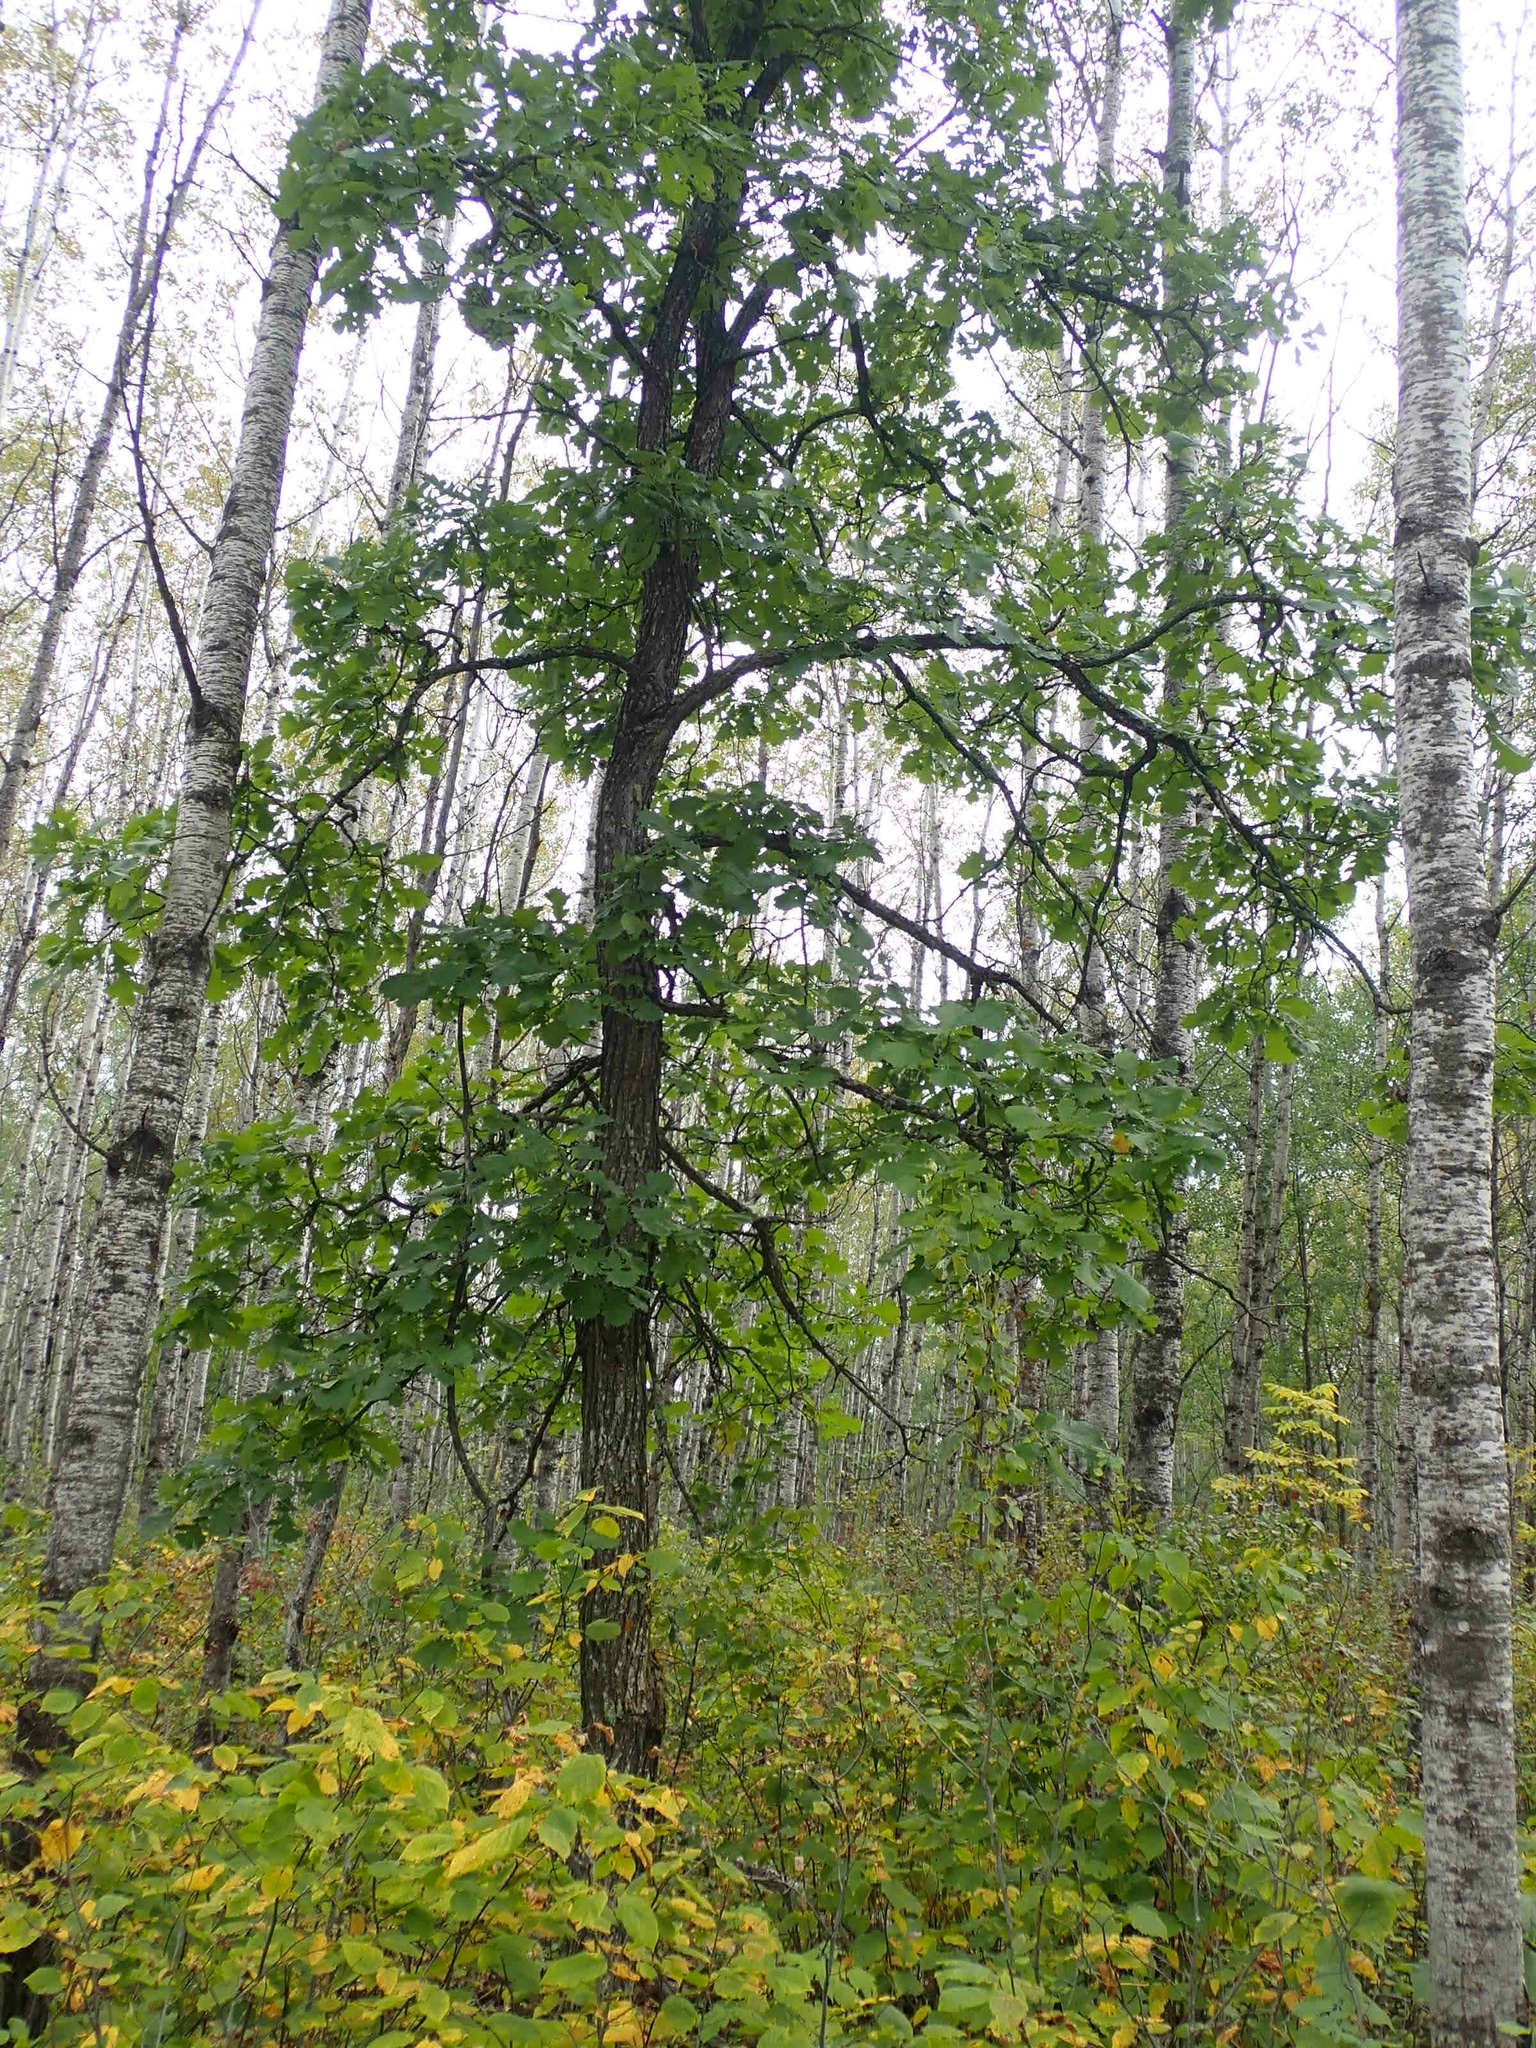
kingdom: Plantae
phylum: Tracheophyta
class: Magnoliopsida
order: Fagales
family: Fagaceae
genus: Quercus
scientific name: Quercus macrocarpa
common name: Bur oak
